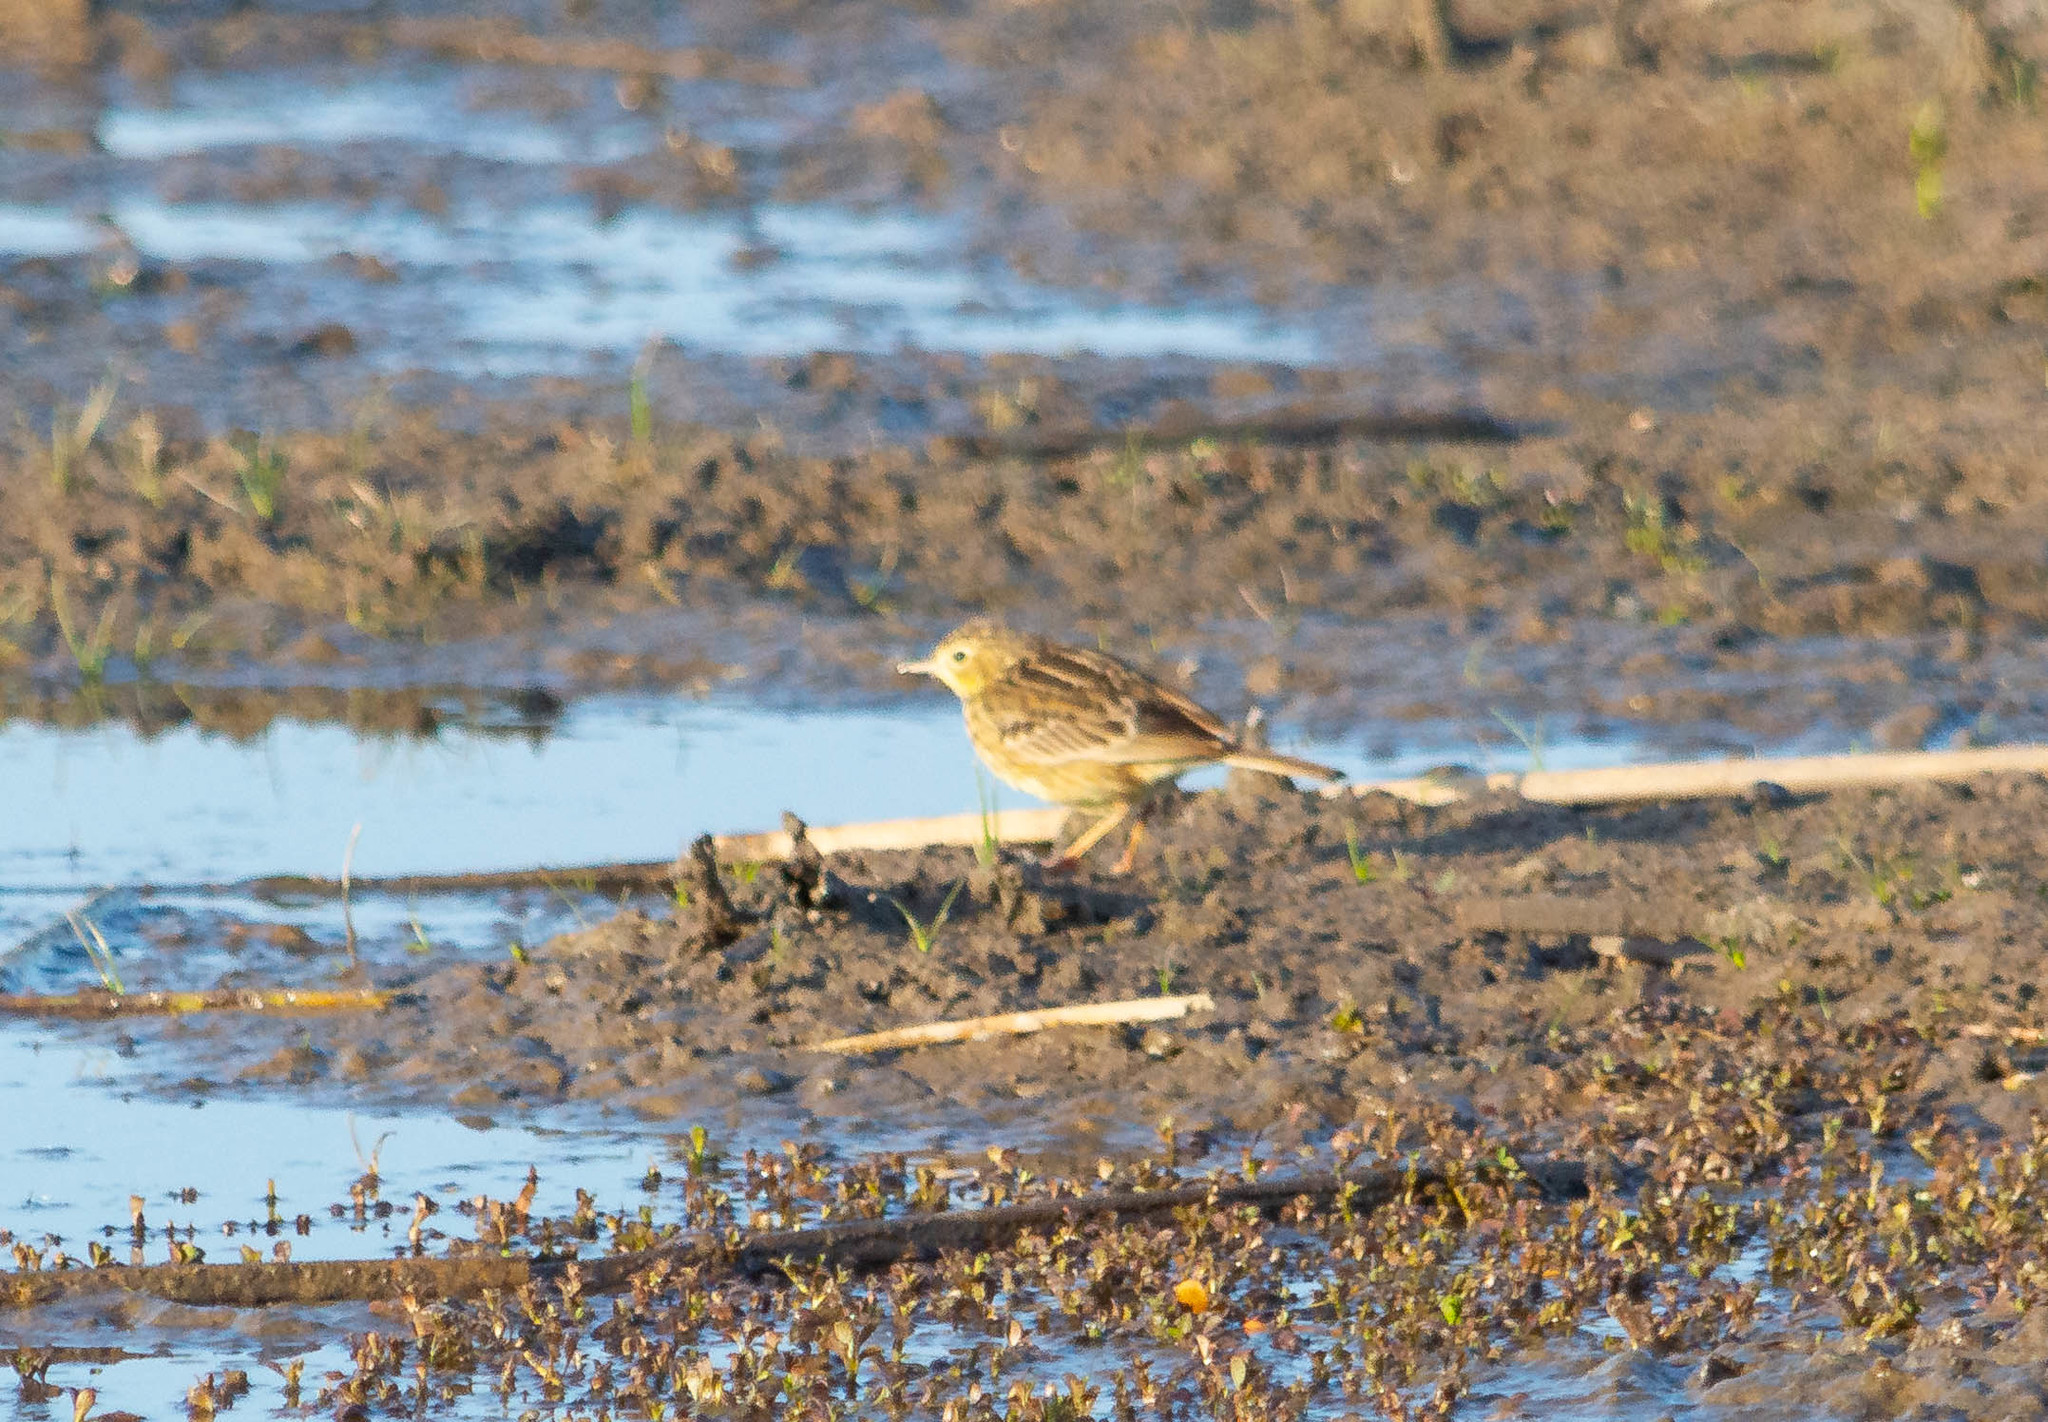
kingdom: Animalia
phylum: Chordata
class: Aves
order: Passeriformes
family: Motacillidae
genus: Anthus
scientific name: Anthus chii
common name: Yellowish pipit
